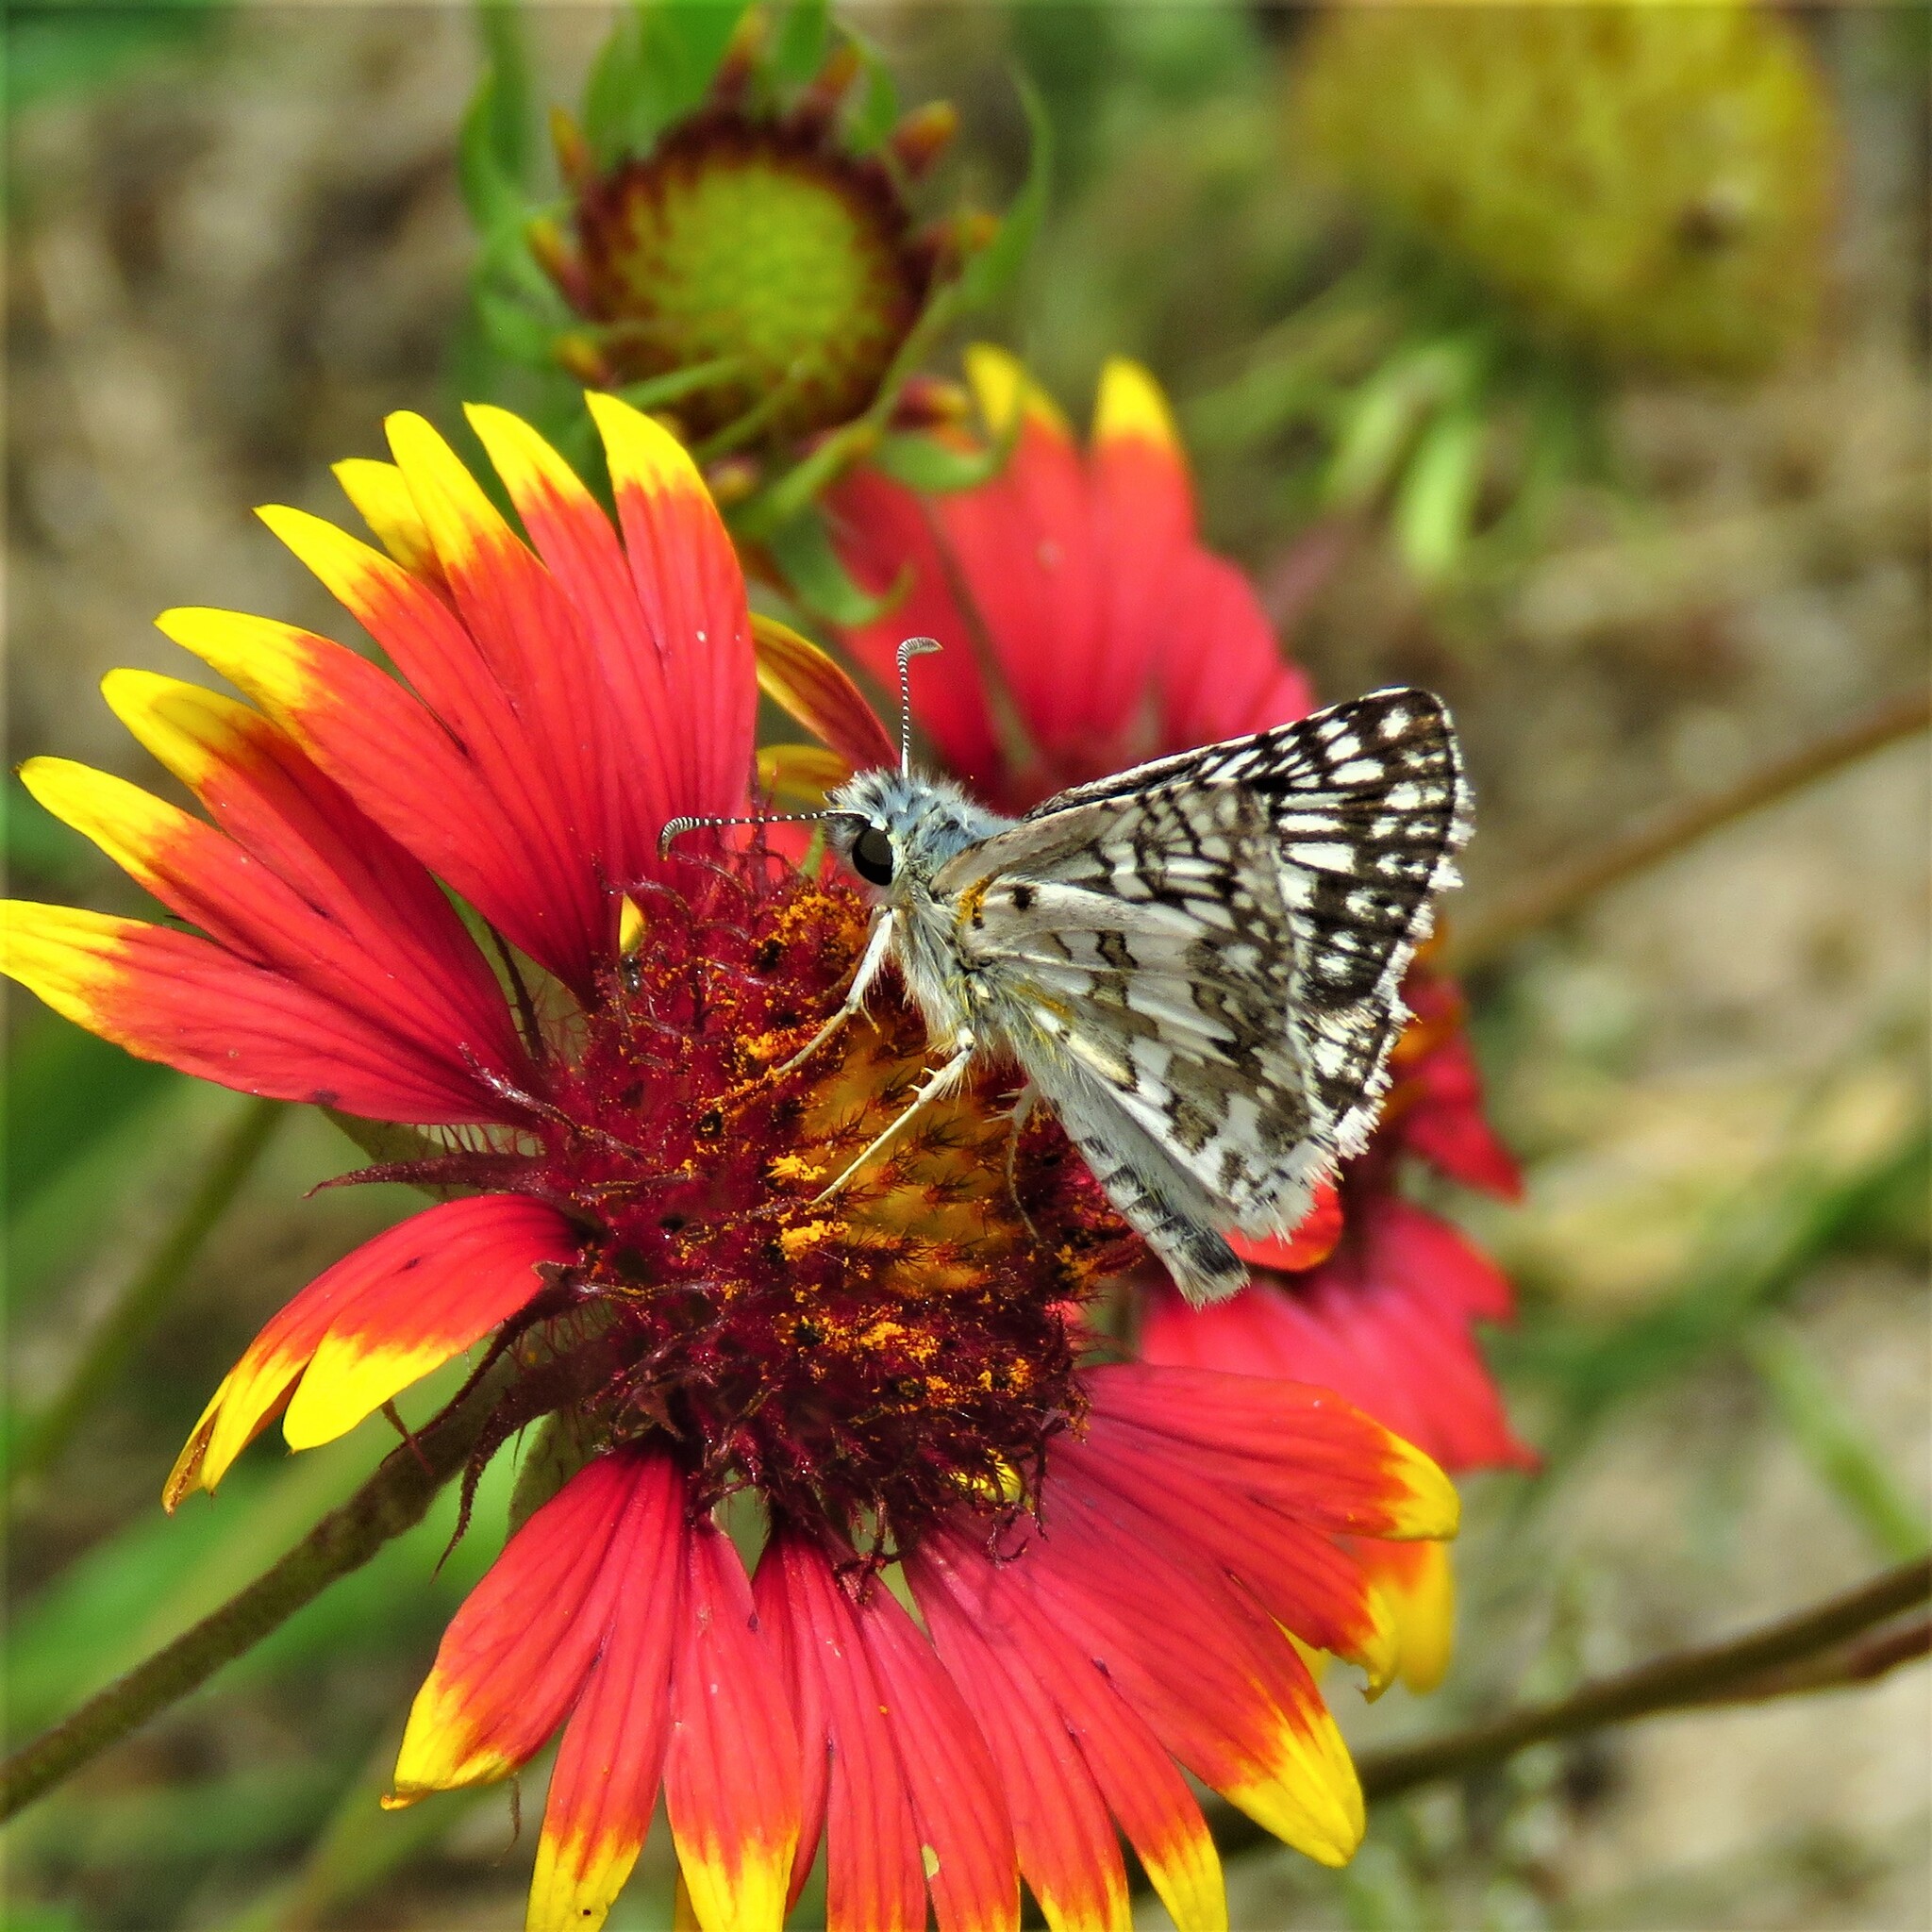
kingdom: Animalia
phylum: Arthropoda
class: Insecta
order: Lepidoptera
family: Hesperiidae
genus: Burnsius
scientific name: Burnsius
